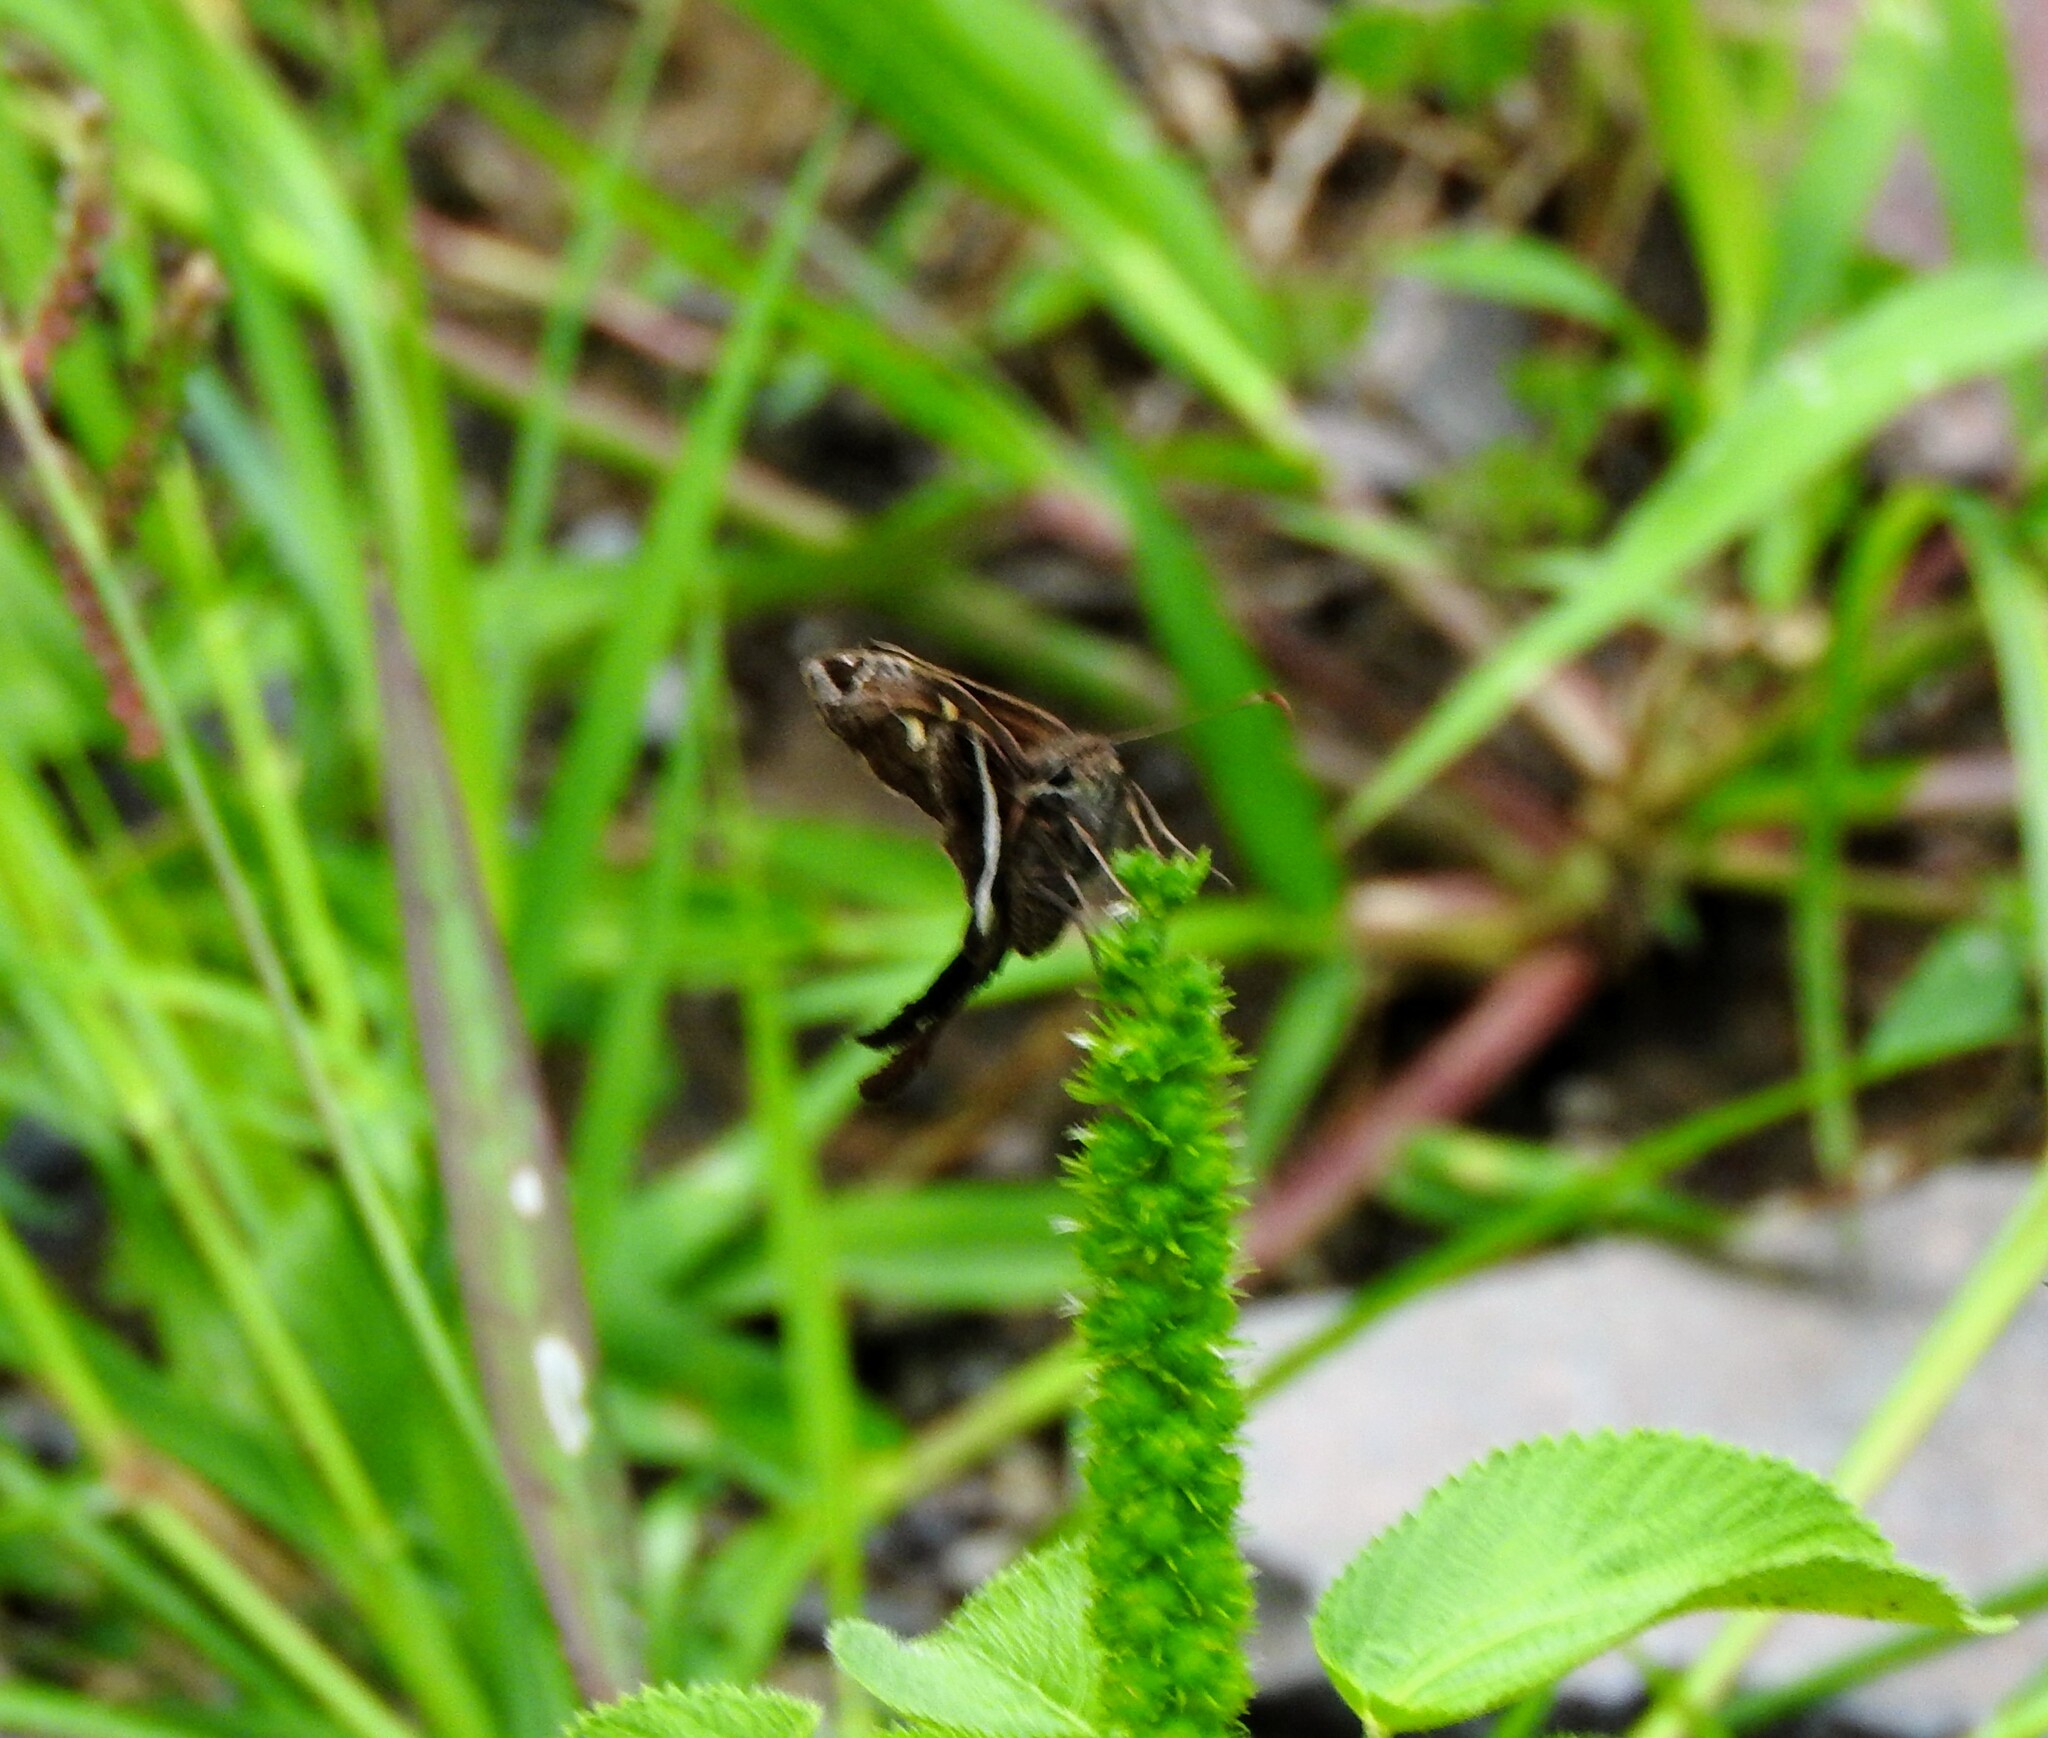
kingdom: Animalia
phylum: Arthropoda
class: Insecta
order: Lepidoptera
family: Hesperiidae
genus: Chioides
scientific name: Chioides catillus
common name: Silverbanded skipper
